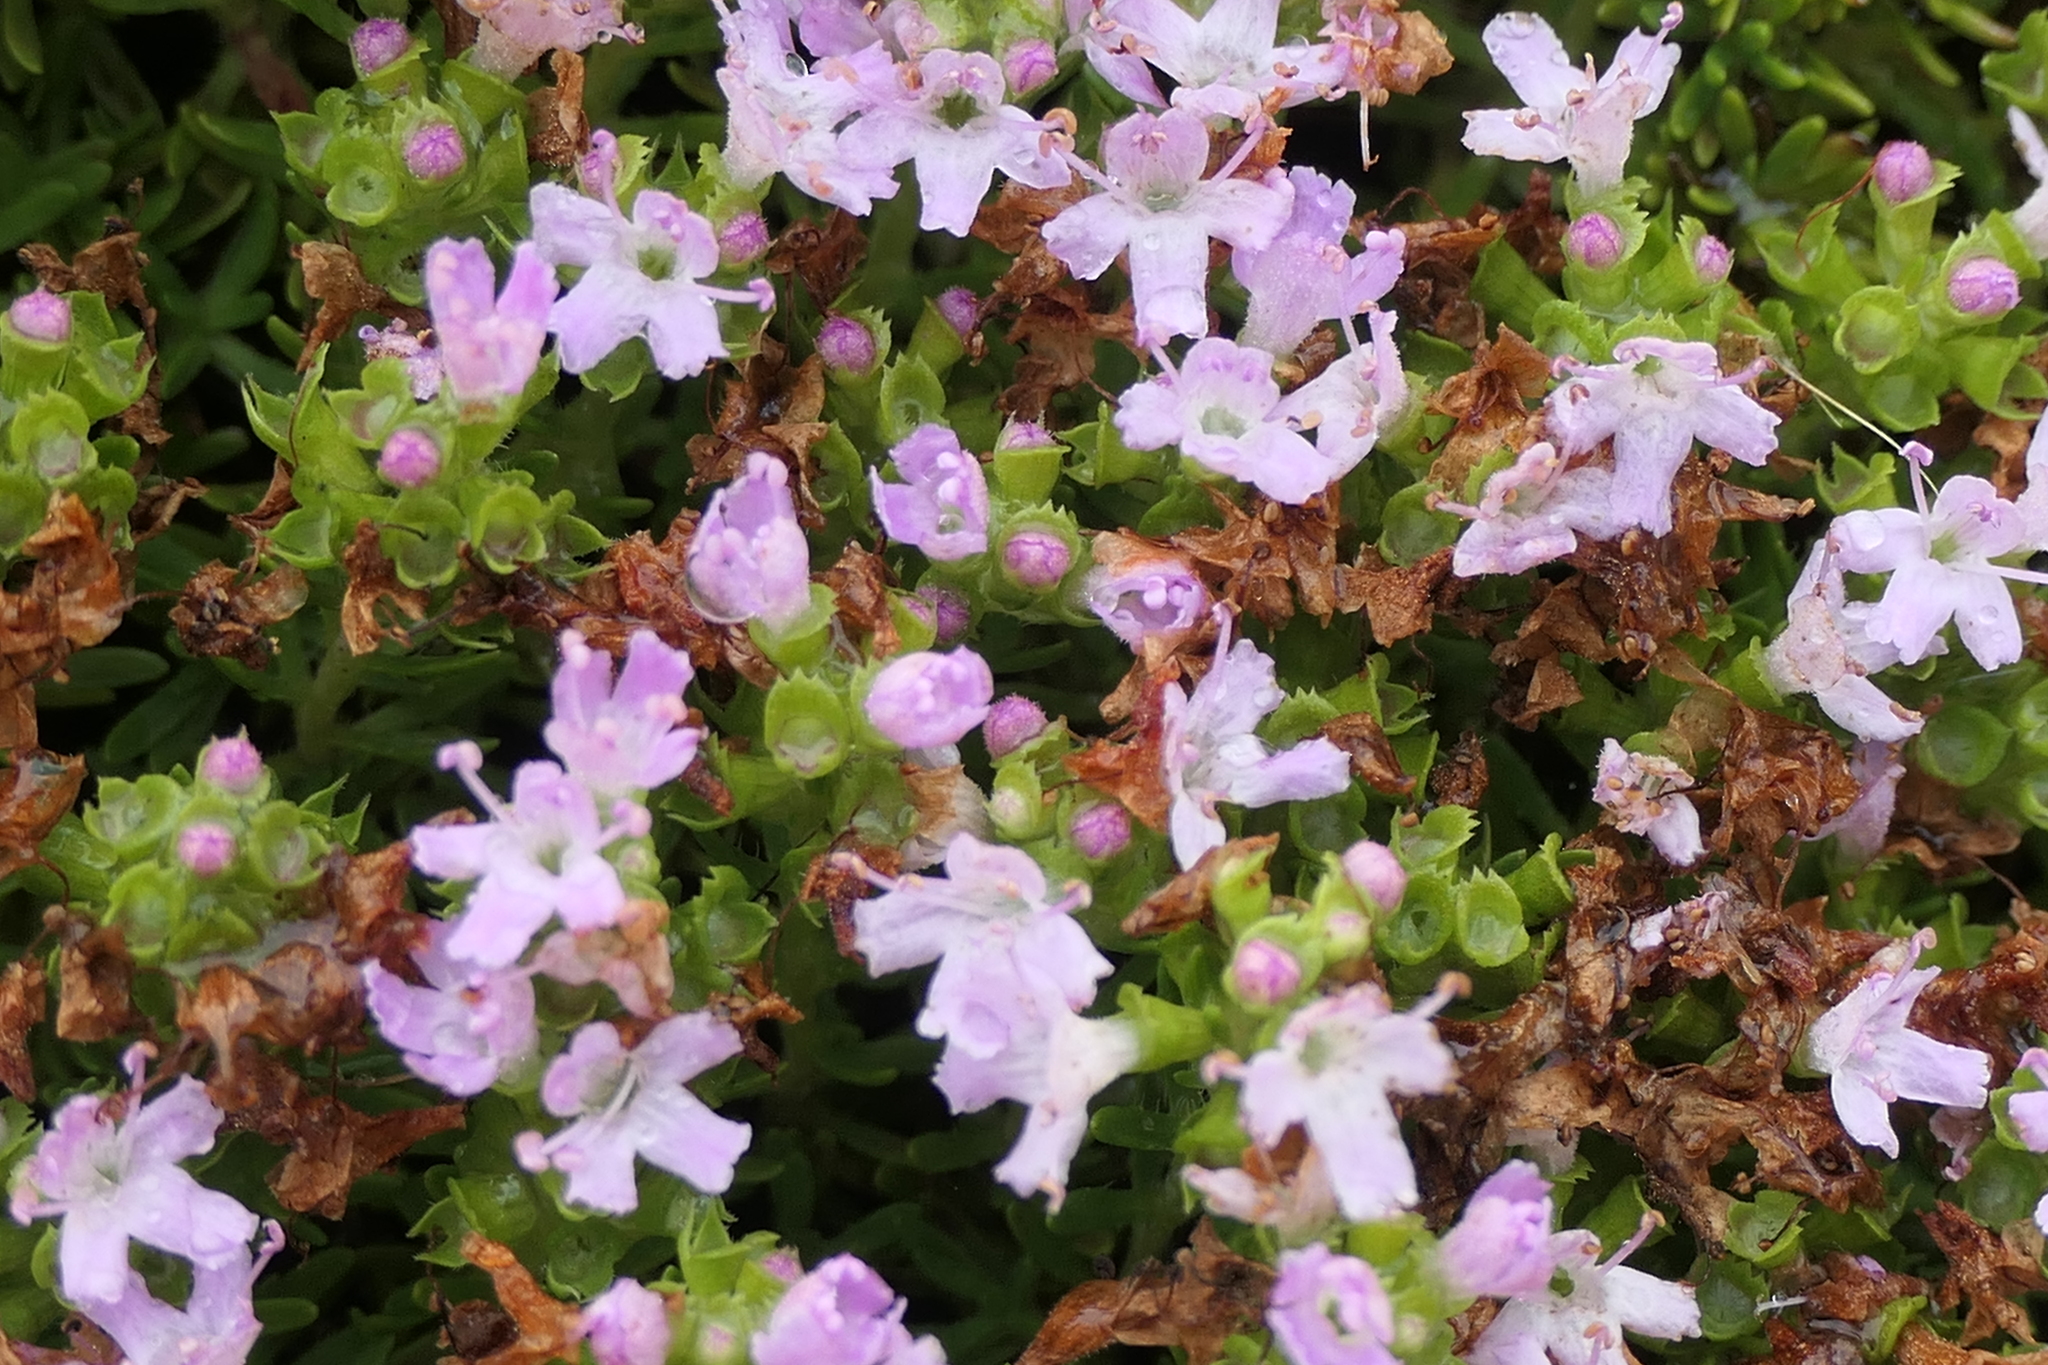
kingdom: Plantae
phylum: Tracheophyta
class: Magnoliopsida
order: Lamiales
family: Lamiaceae
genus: Thymus
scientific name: Thymus caespititius
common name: Azores thyme
